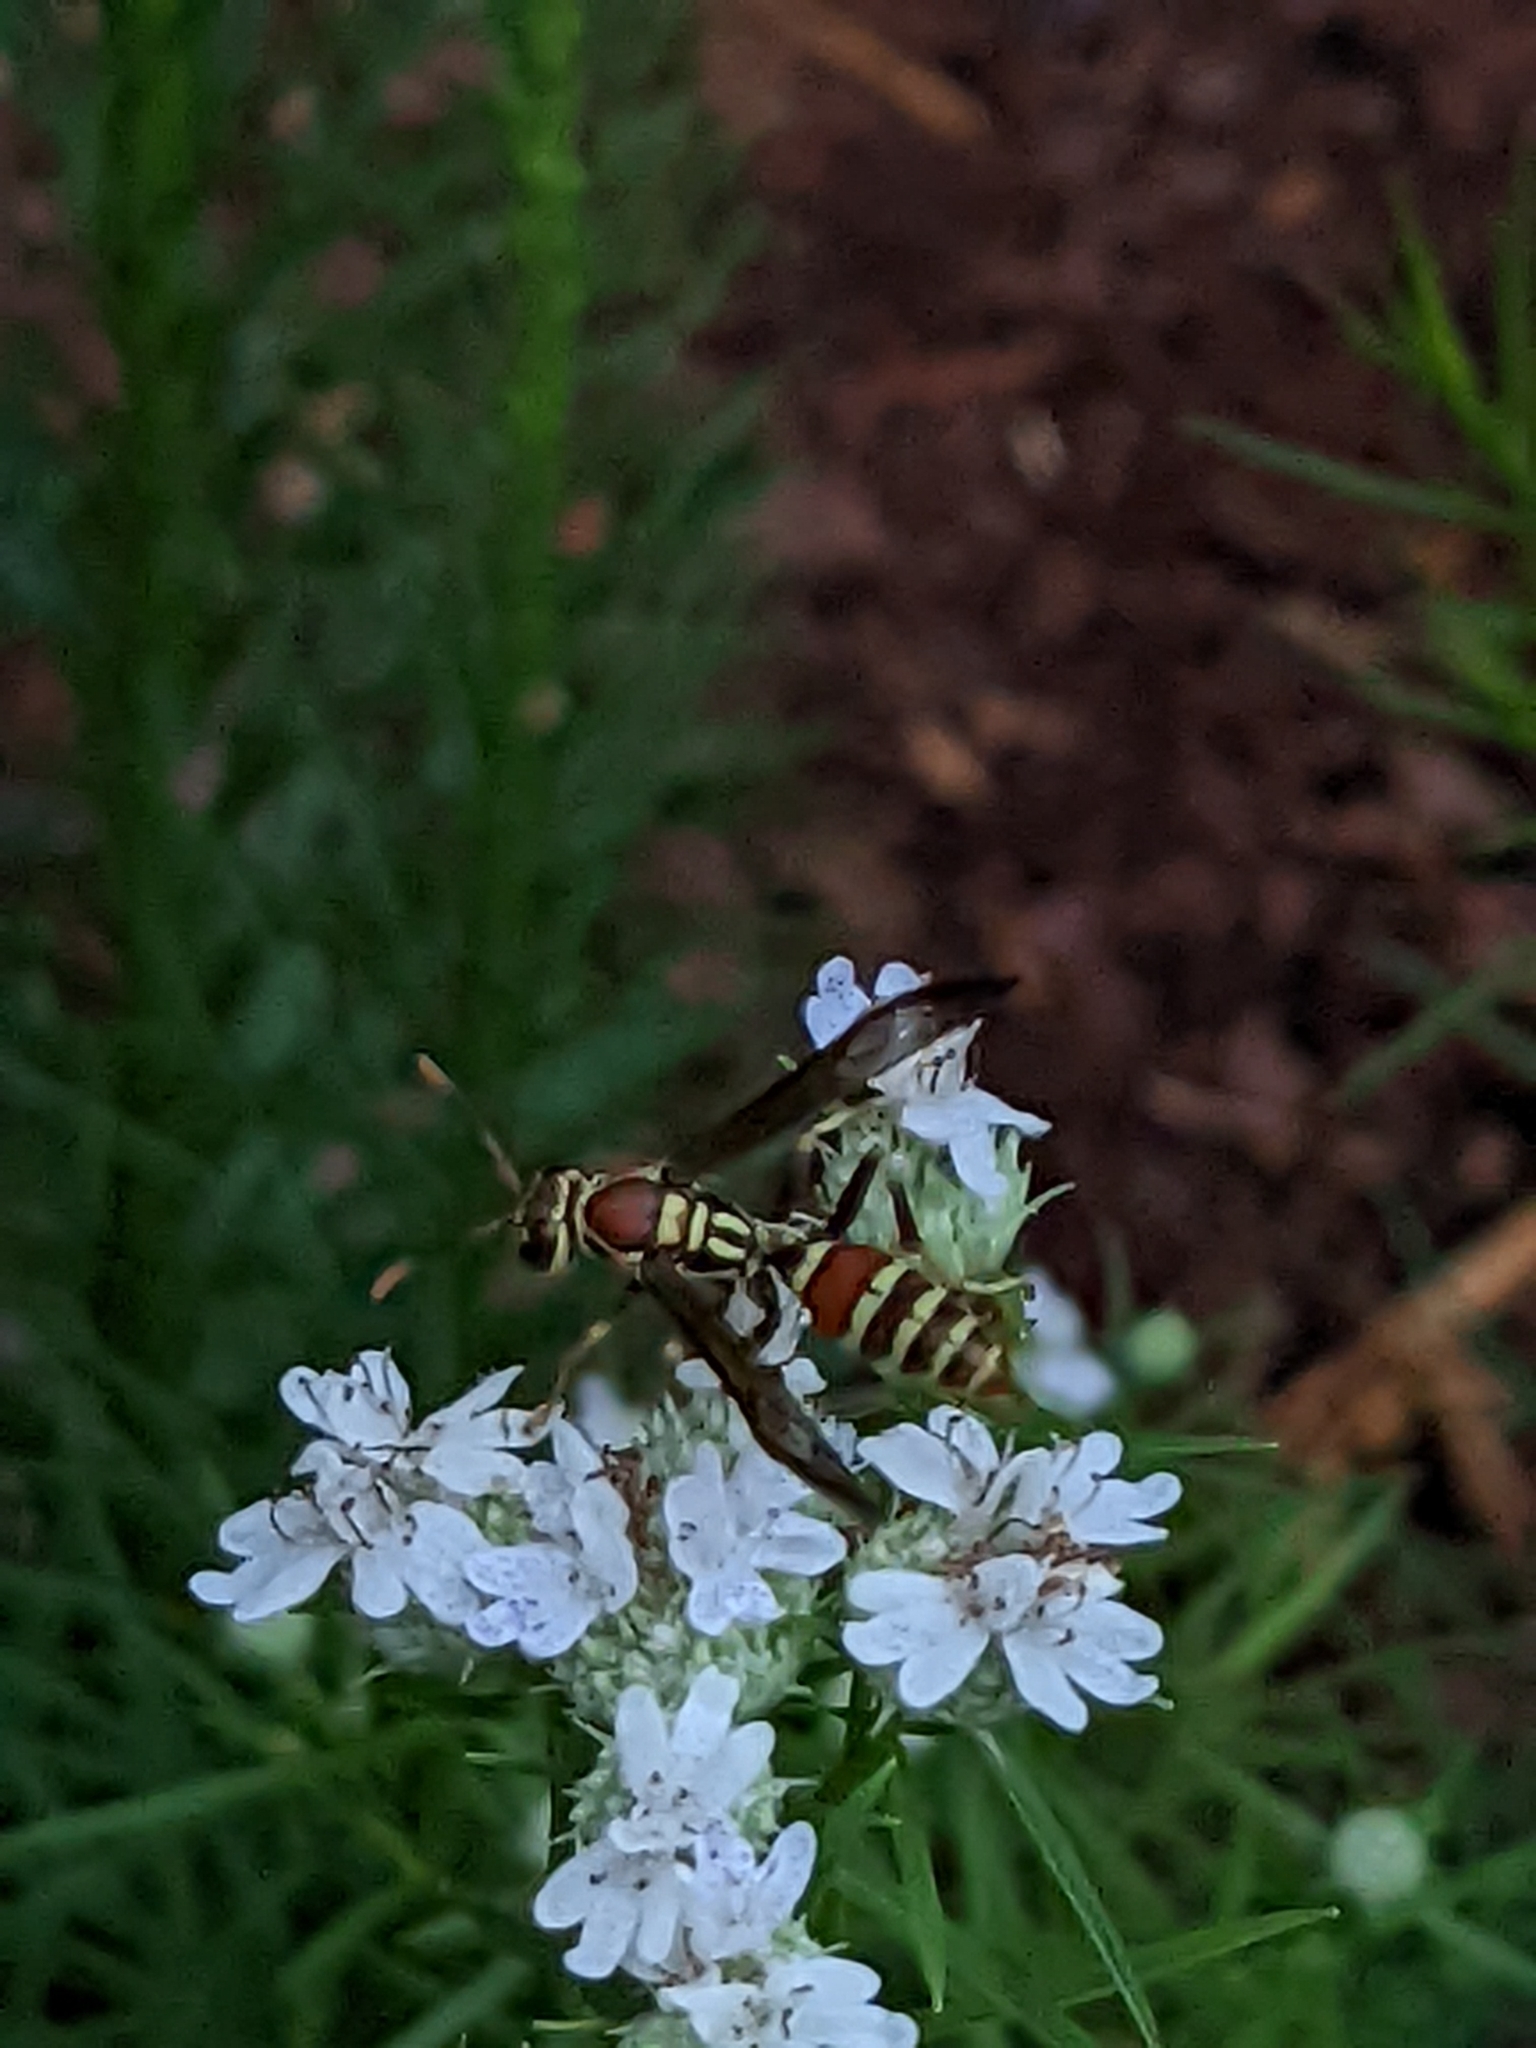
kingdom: Animalia
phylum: Arthropoda
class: Insecta
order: Hymenoptera
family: Eumenidae
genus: Polistes
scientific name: Polistes exclamans
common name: Paper wasp
